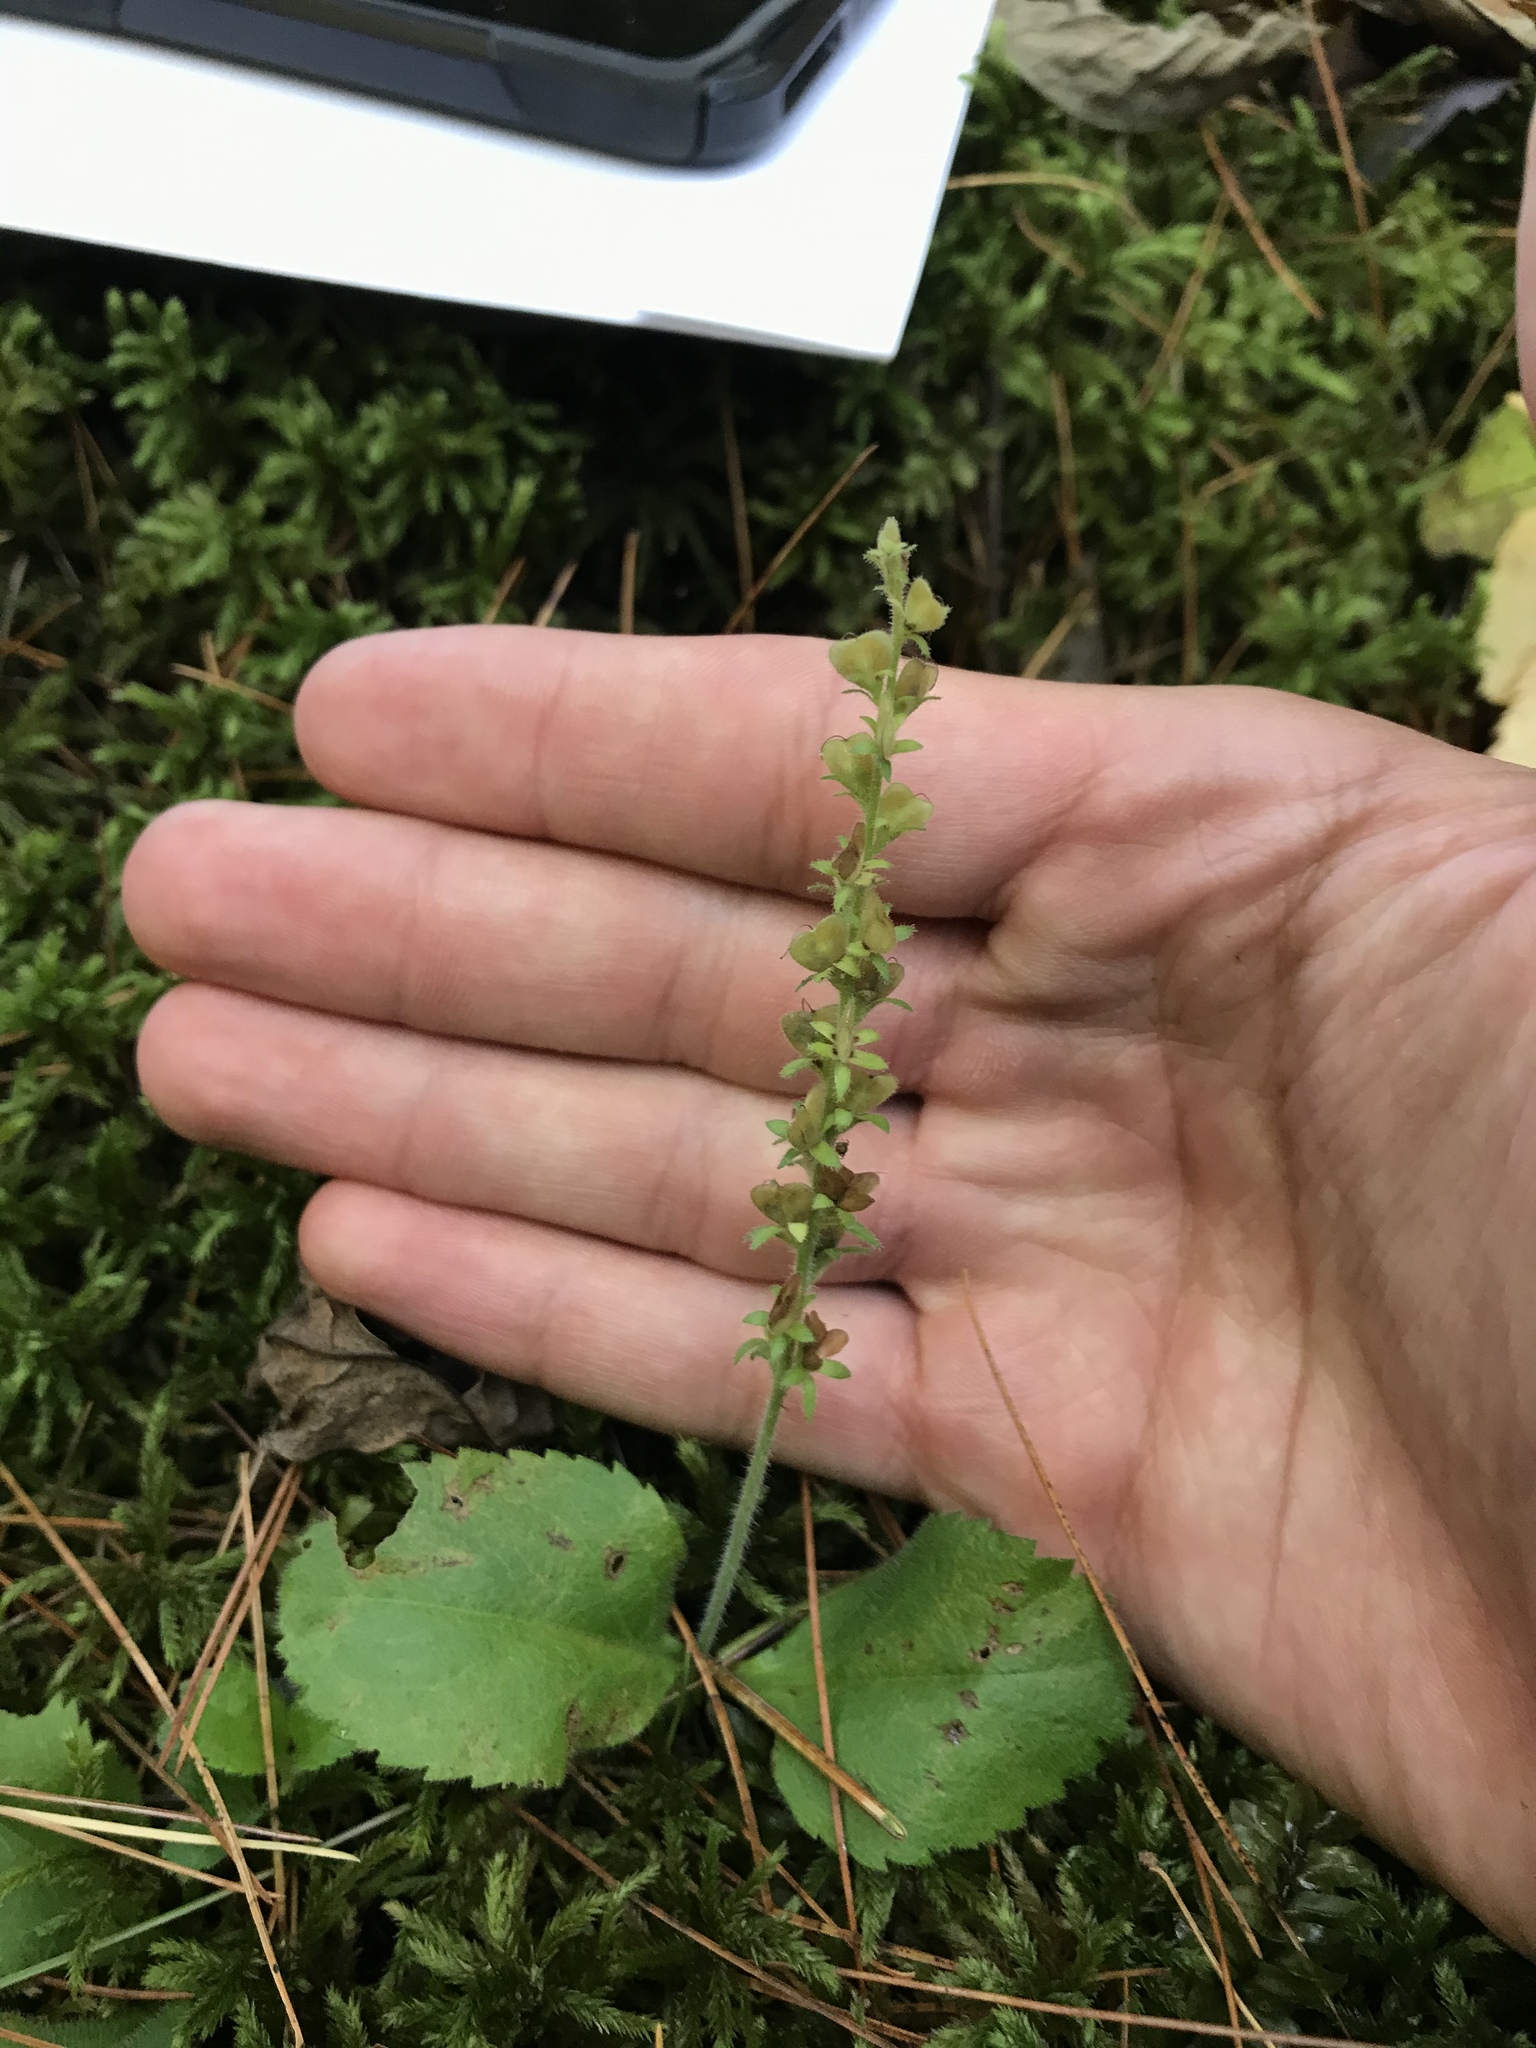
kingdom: Plantae
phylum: Tracheophyta
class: Magnoliopsida
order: Lamiales
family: Plantaginaceae
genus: Veronica
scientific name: Veronica officinalis
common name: Common speedwell
